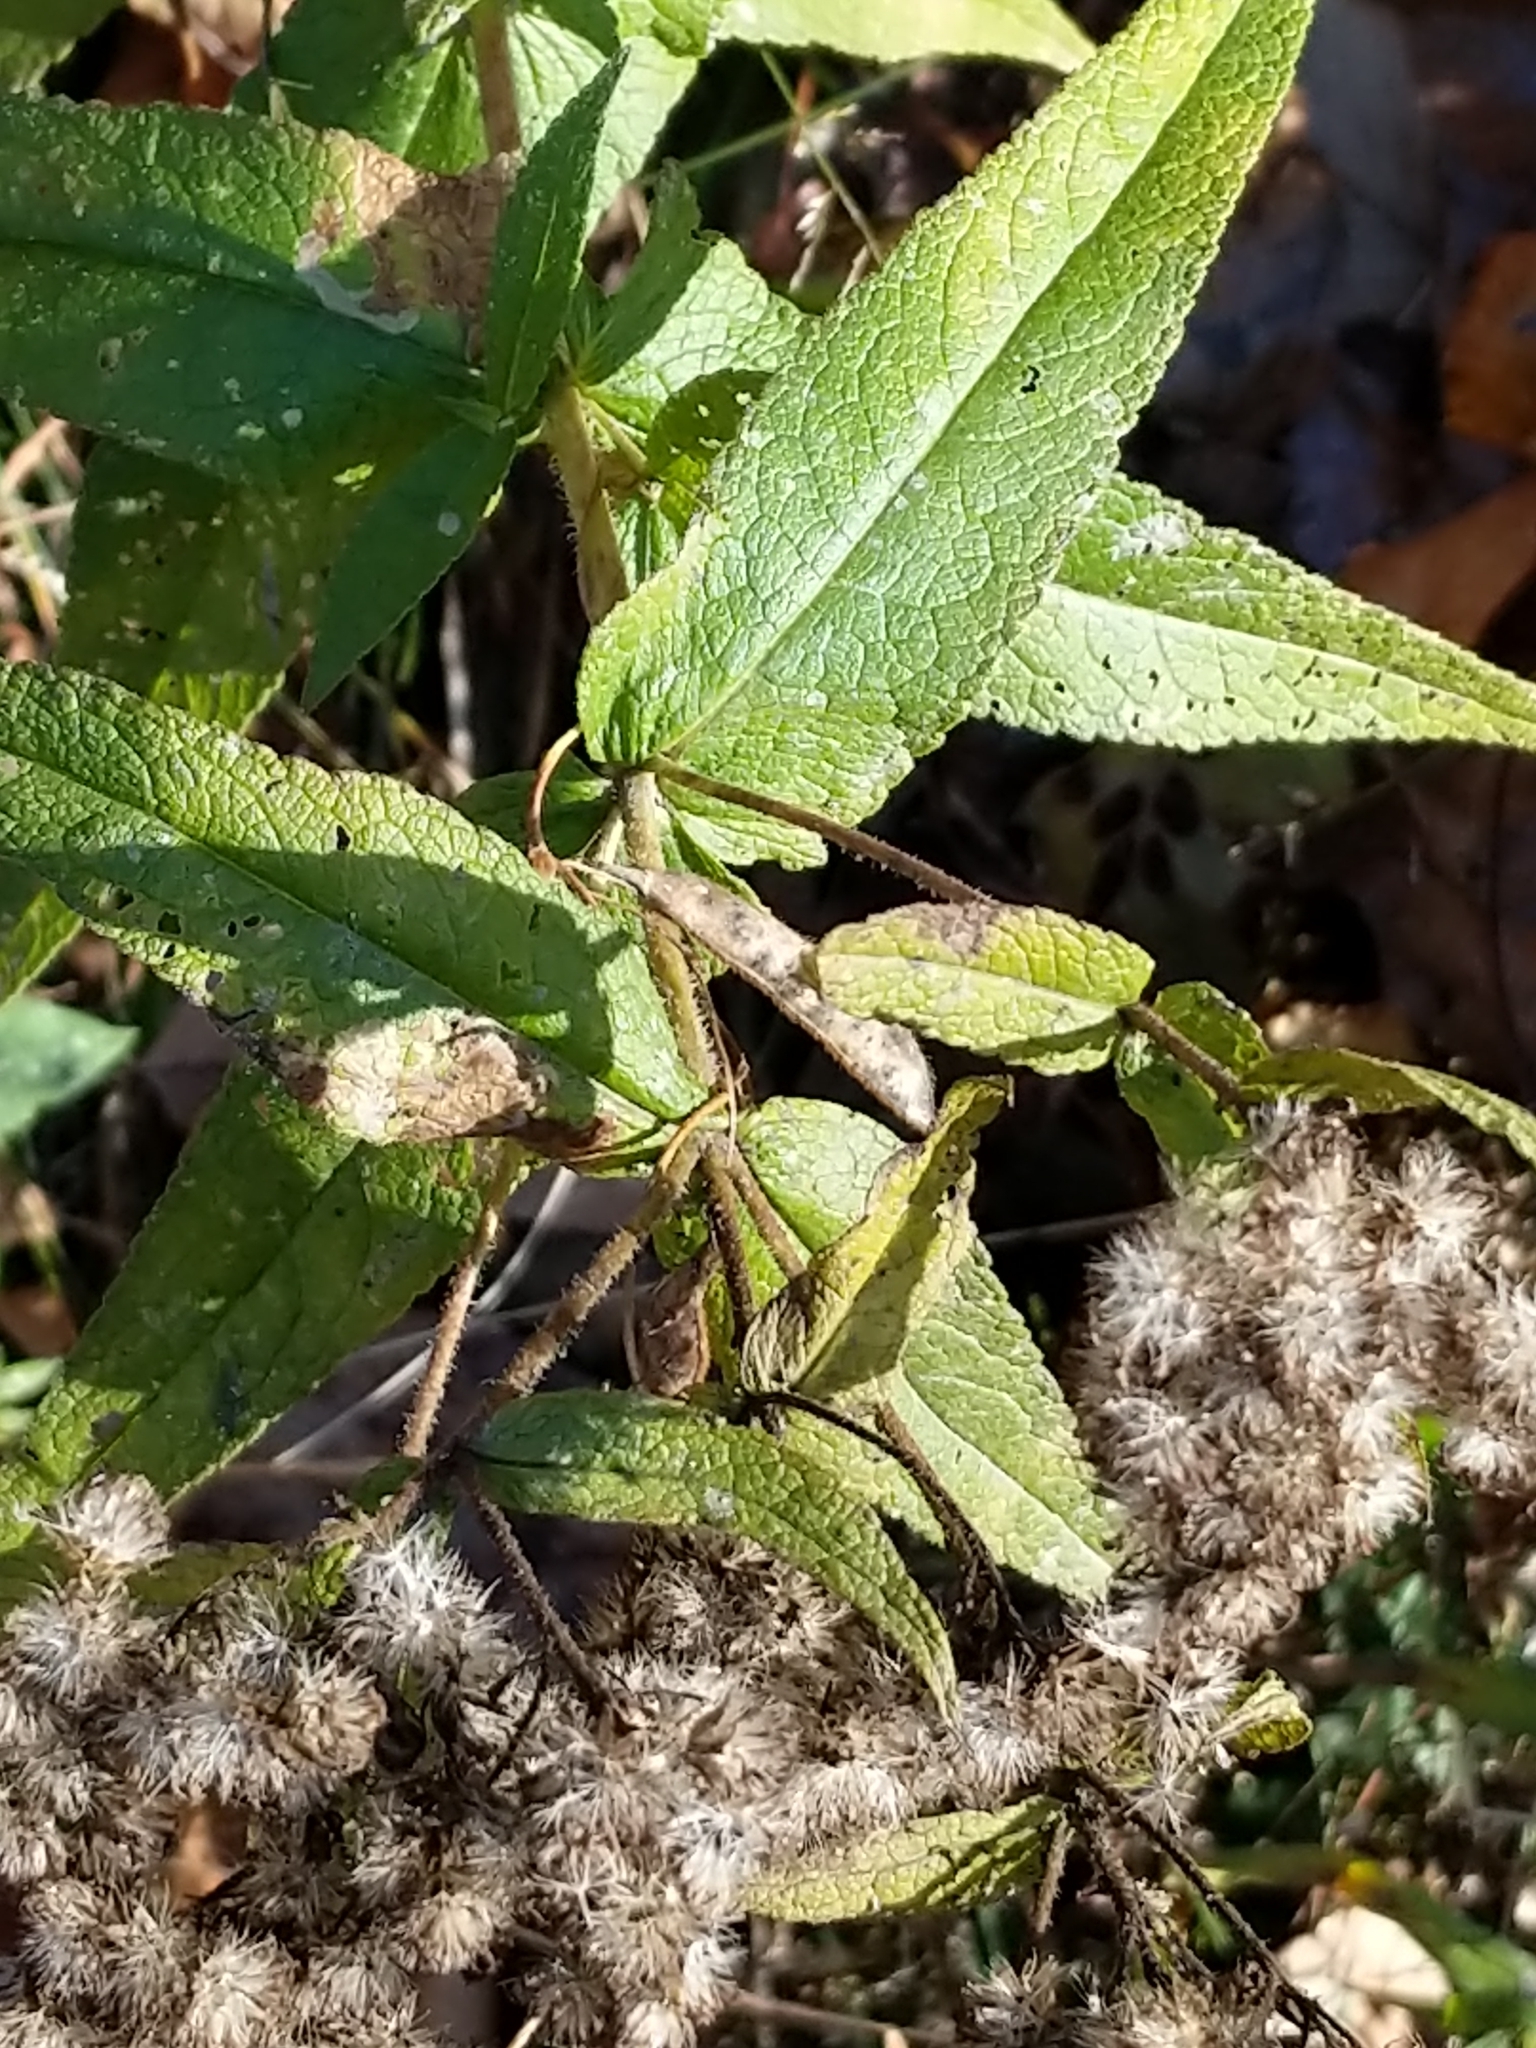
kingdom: Plantae
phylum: Tracheophyta
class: Magnoliopsida
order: Asterales
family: Asteraceae
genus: Eupatorium
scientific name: Eupatorium perfoliatum
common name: Boneset
